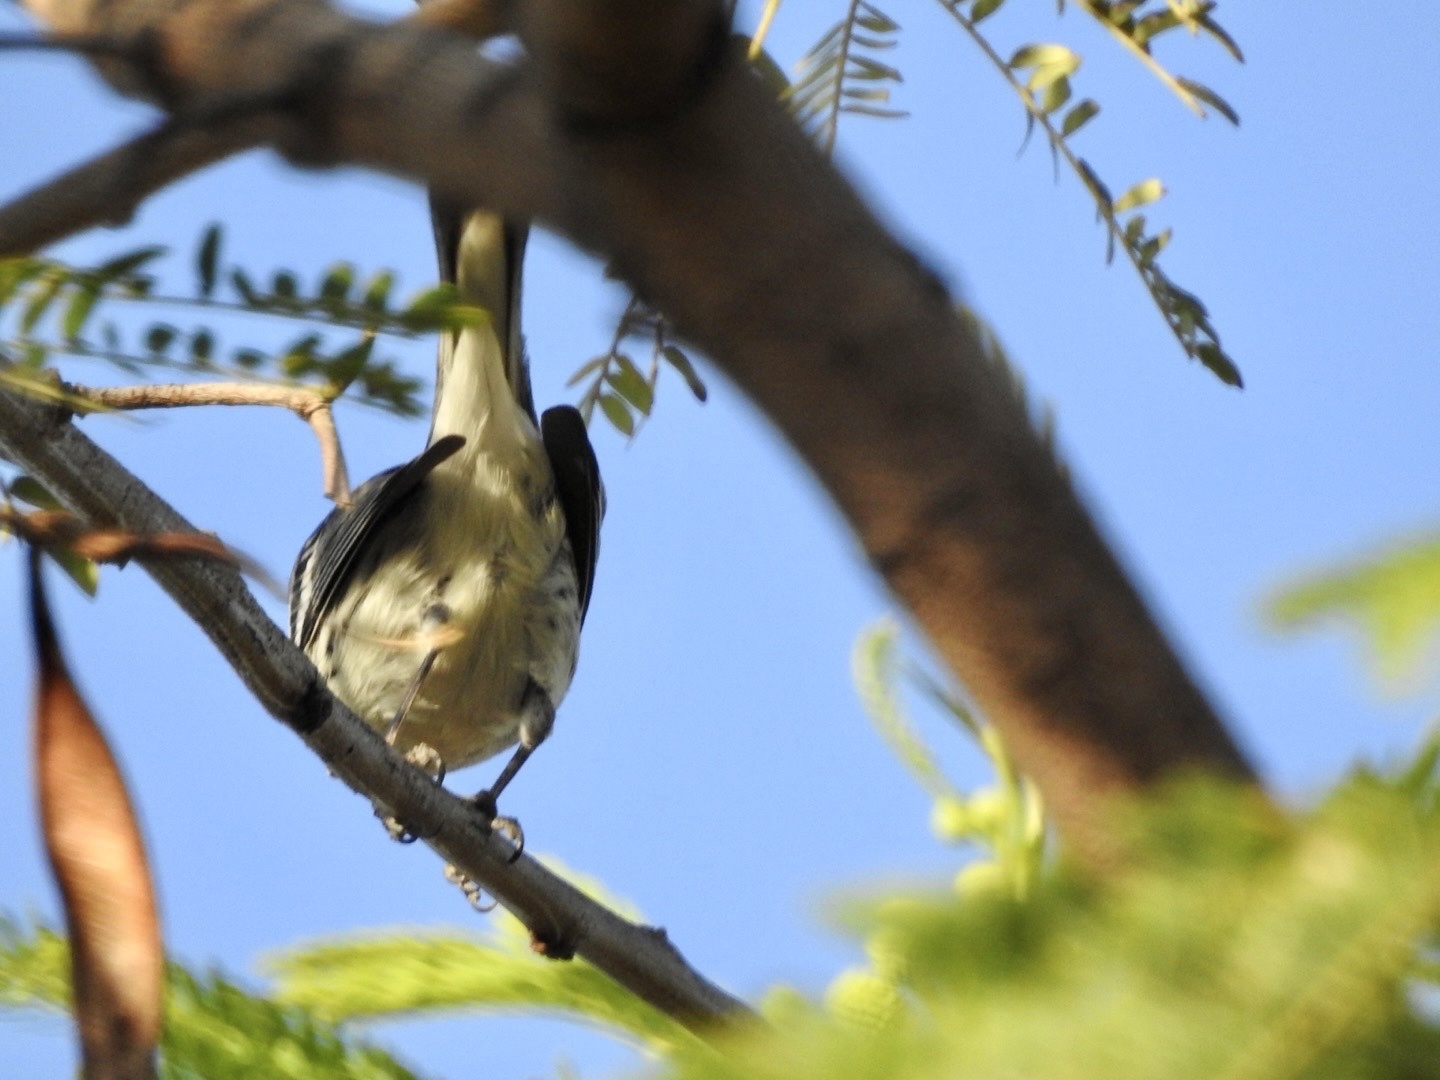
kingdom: Animalia
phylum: Chordata
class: Aves
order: Passeriformes
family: Parulidae
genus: Setophaga
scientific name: Setophaga nigrescens
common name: Black-throated gray warbler
